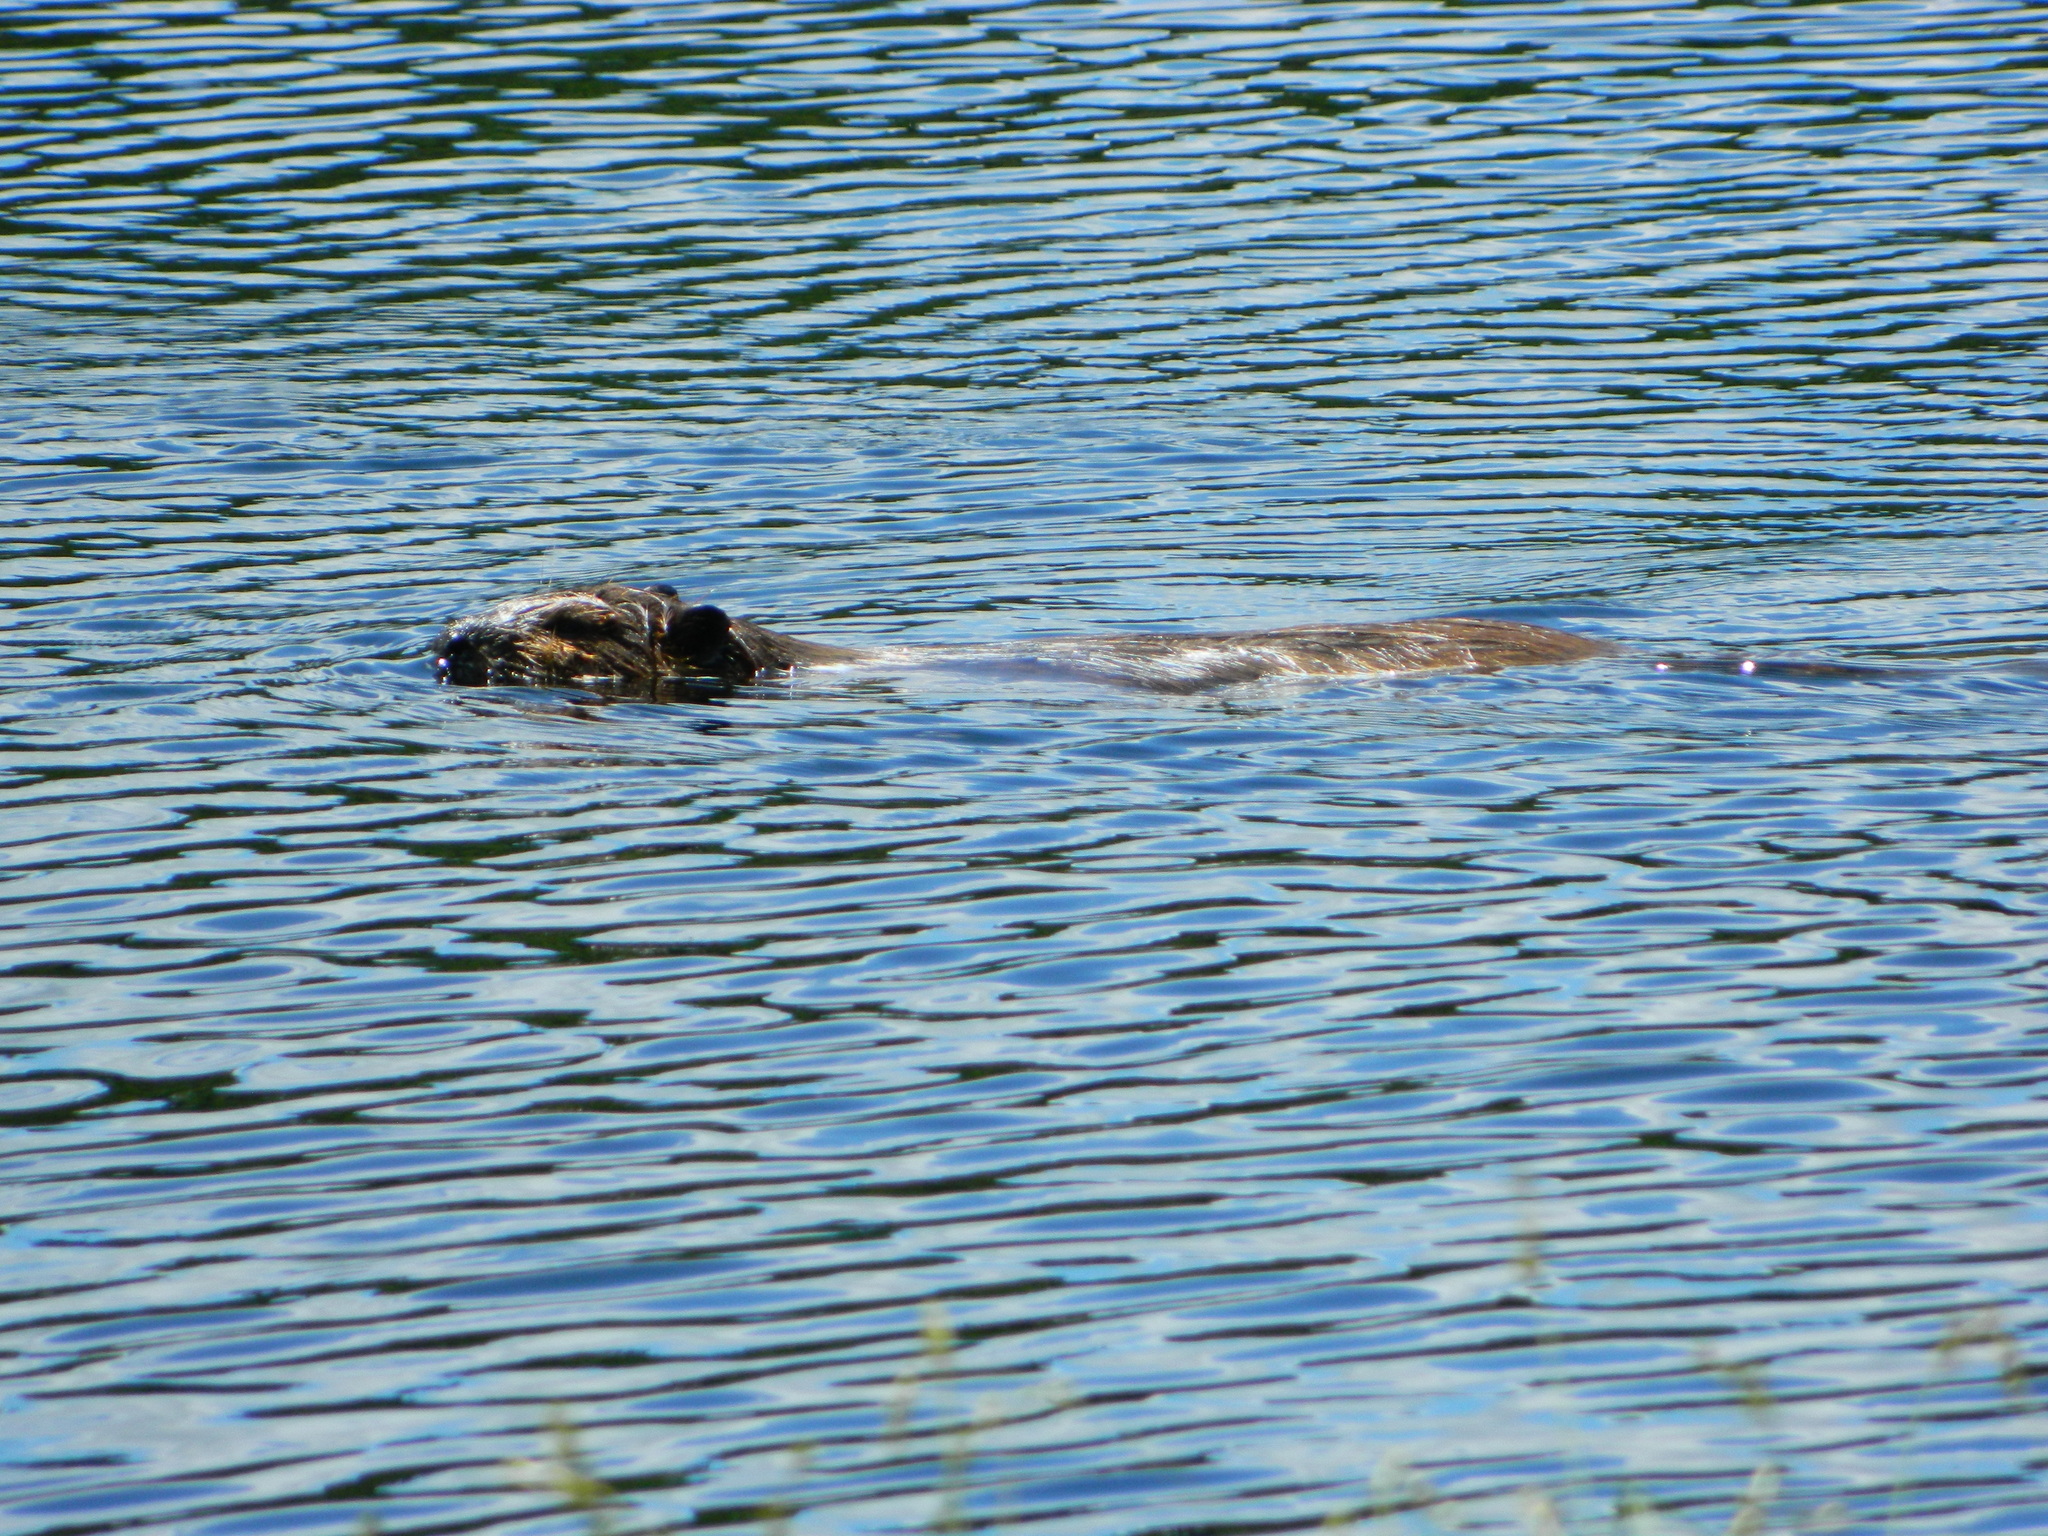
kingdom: Animalia
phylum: Chordata
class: Mammalia
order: Rodentia
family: Castoridae
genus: Castor
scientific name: Castor canadensis
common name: American beaver
